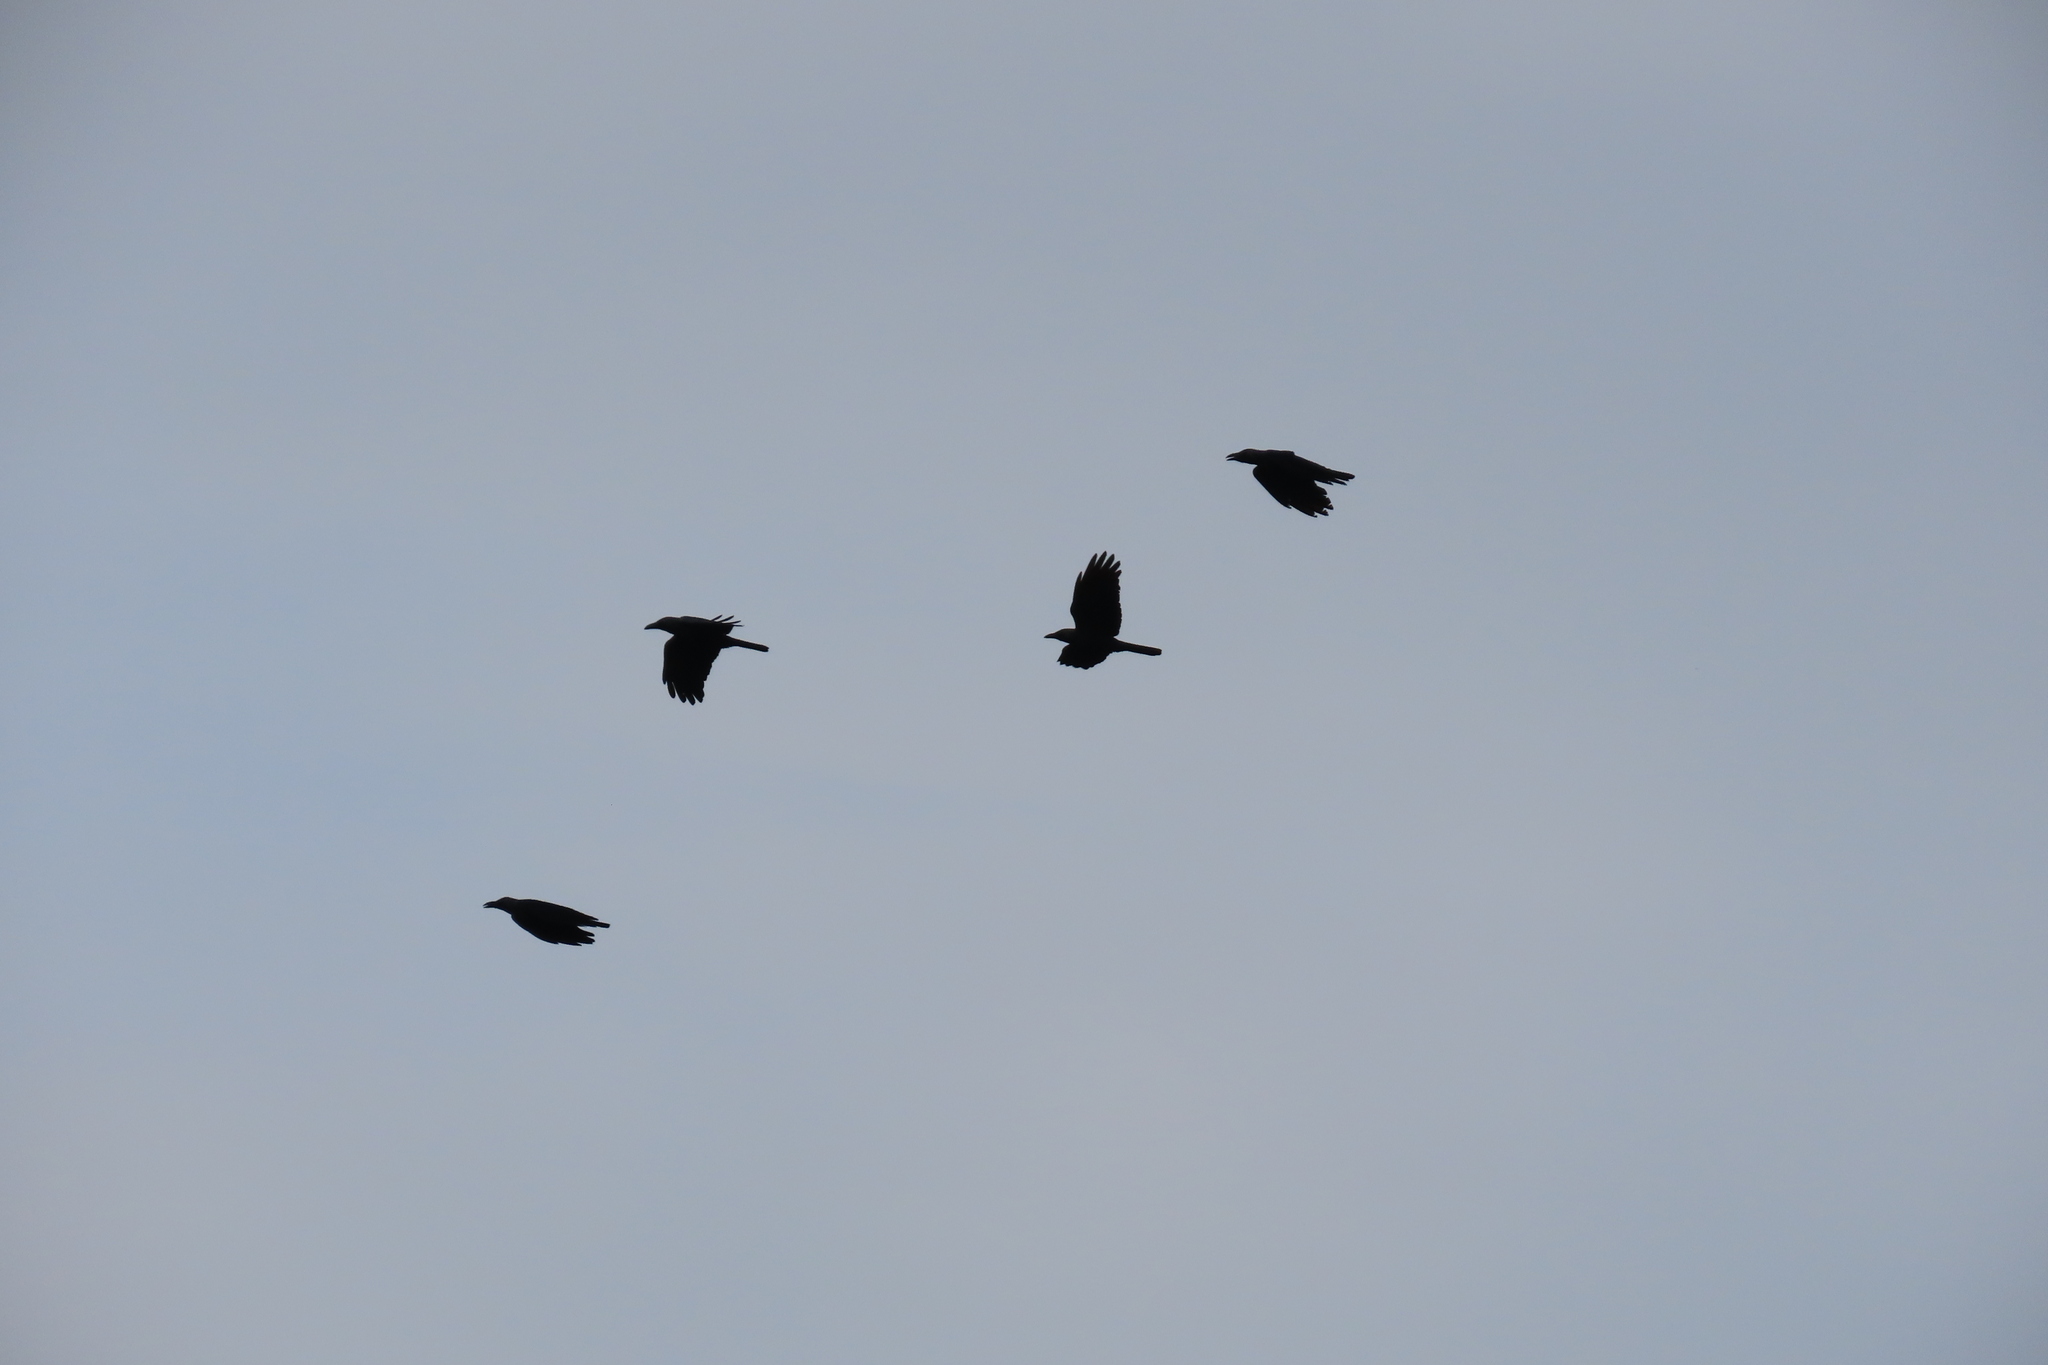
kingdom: Animalia
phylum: Chordata
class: Aves
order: Passeriformes
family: Corvidae
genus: Corvus
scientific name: Corvus splendens
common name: House crow
